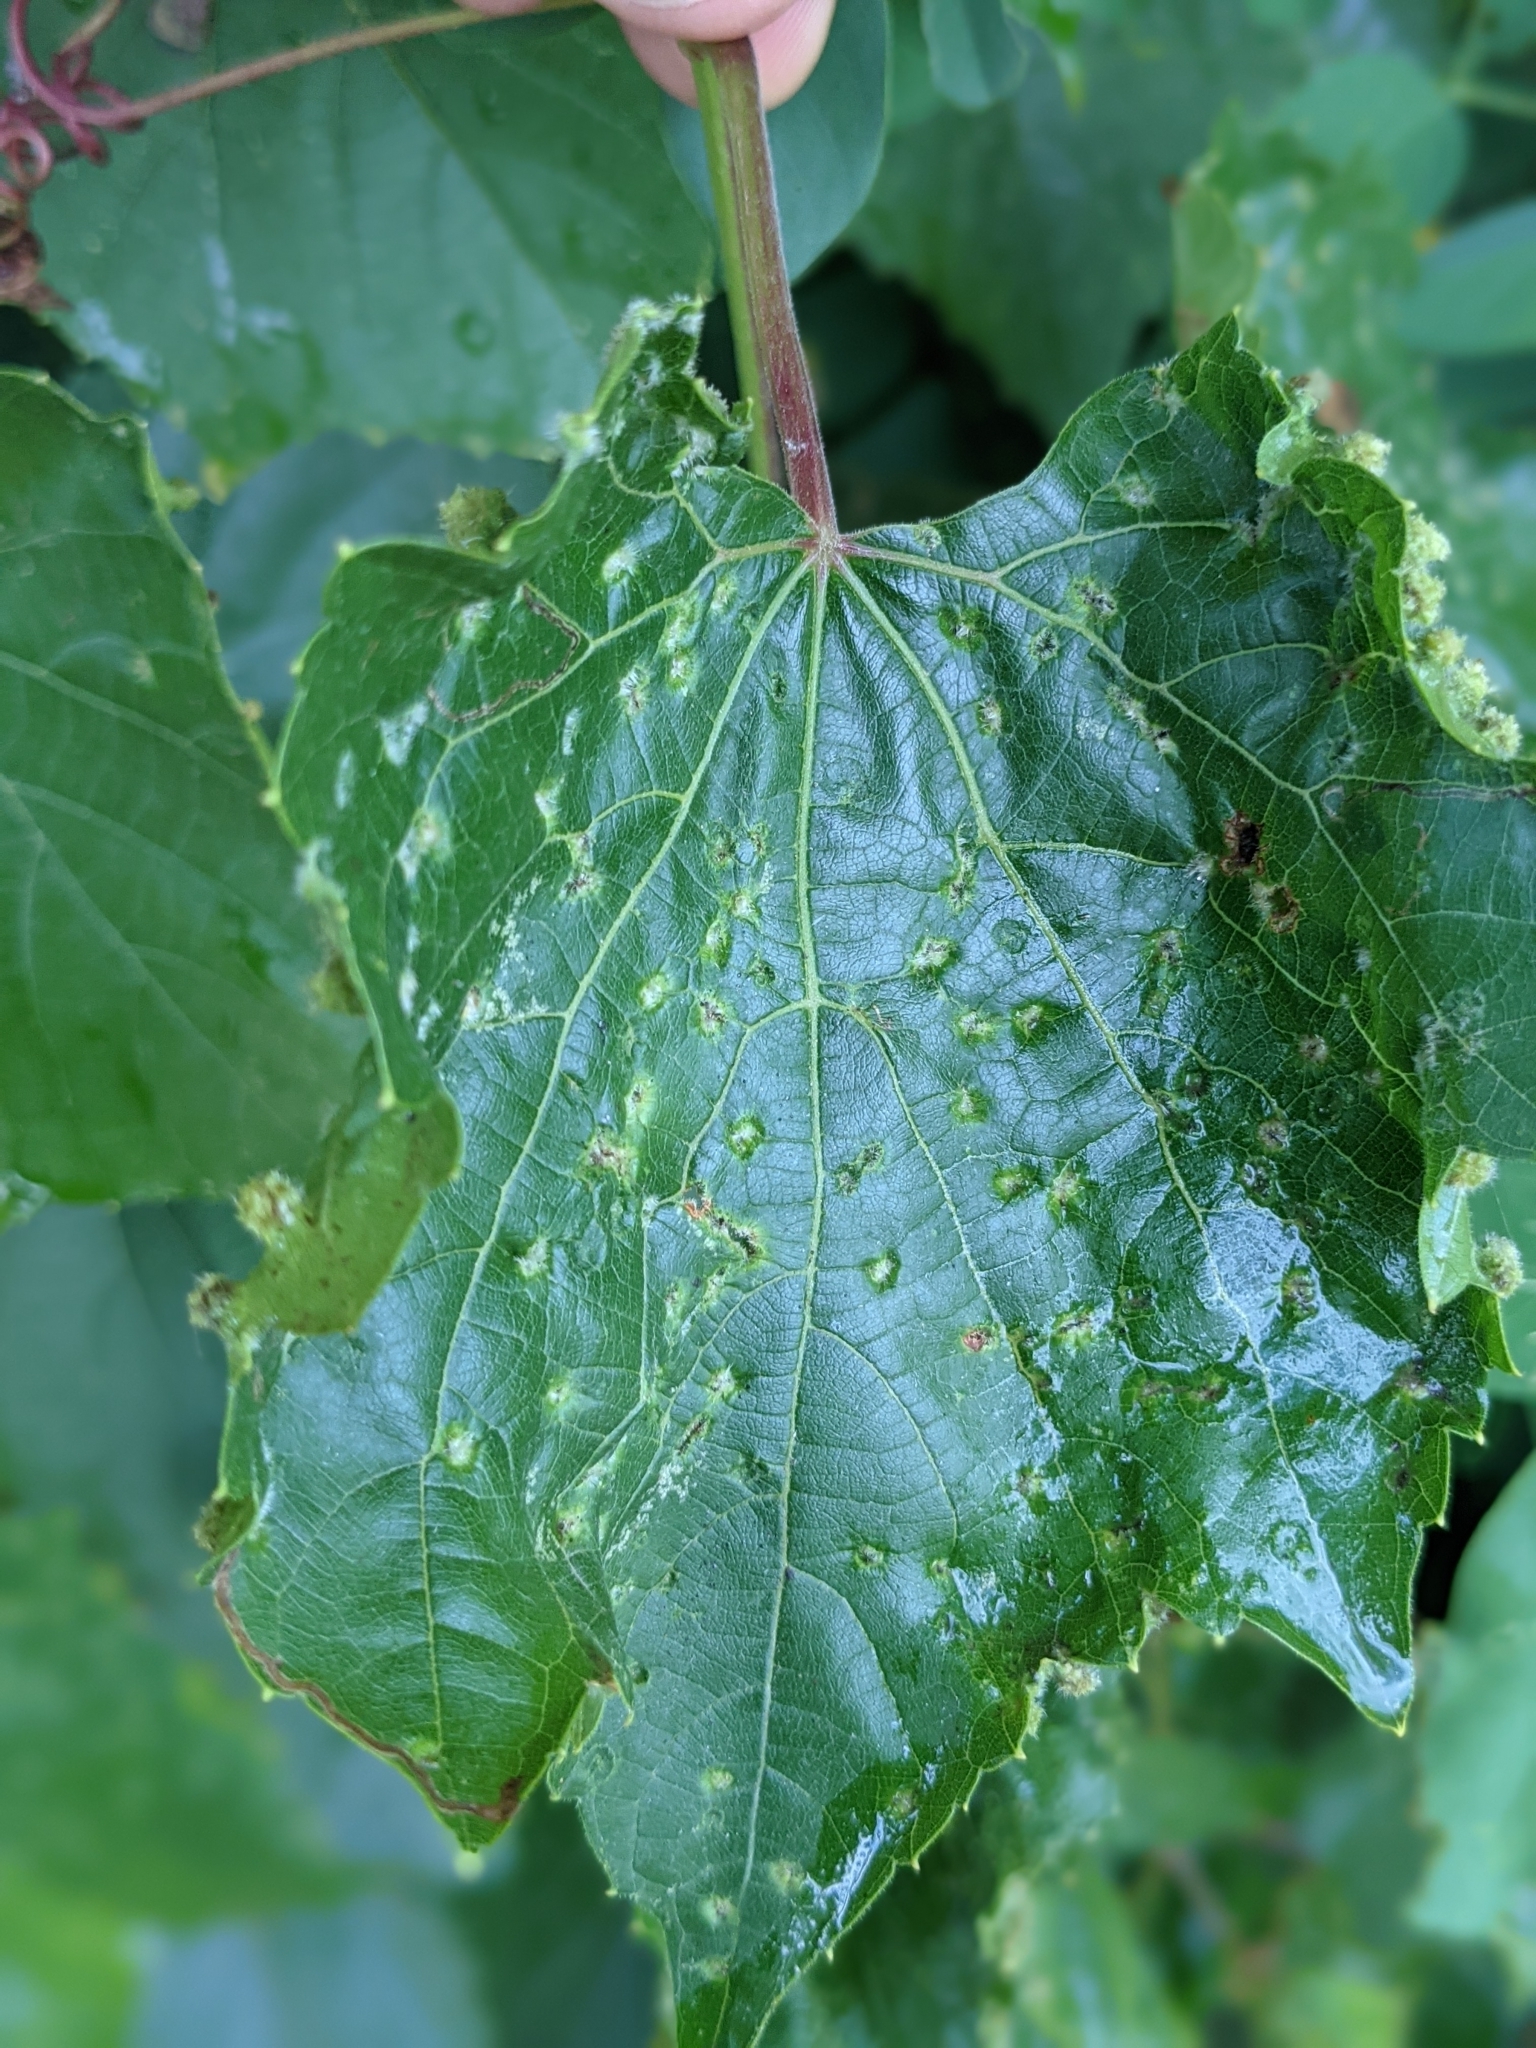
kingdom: Animalia
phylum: Arthropoda
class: Insecta
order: Hemiptera
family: Phylloxeridae
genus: Daktulosphaira
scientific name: Daktulosphaira vitifoliae
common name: Grape phylloxera
